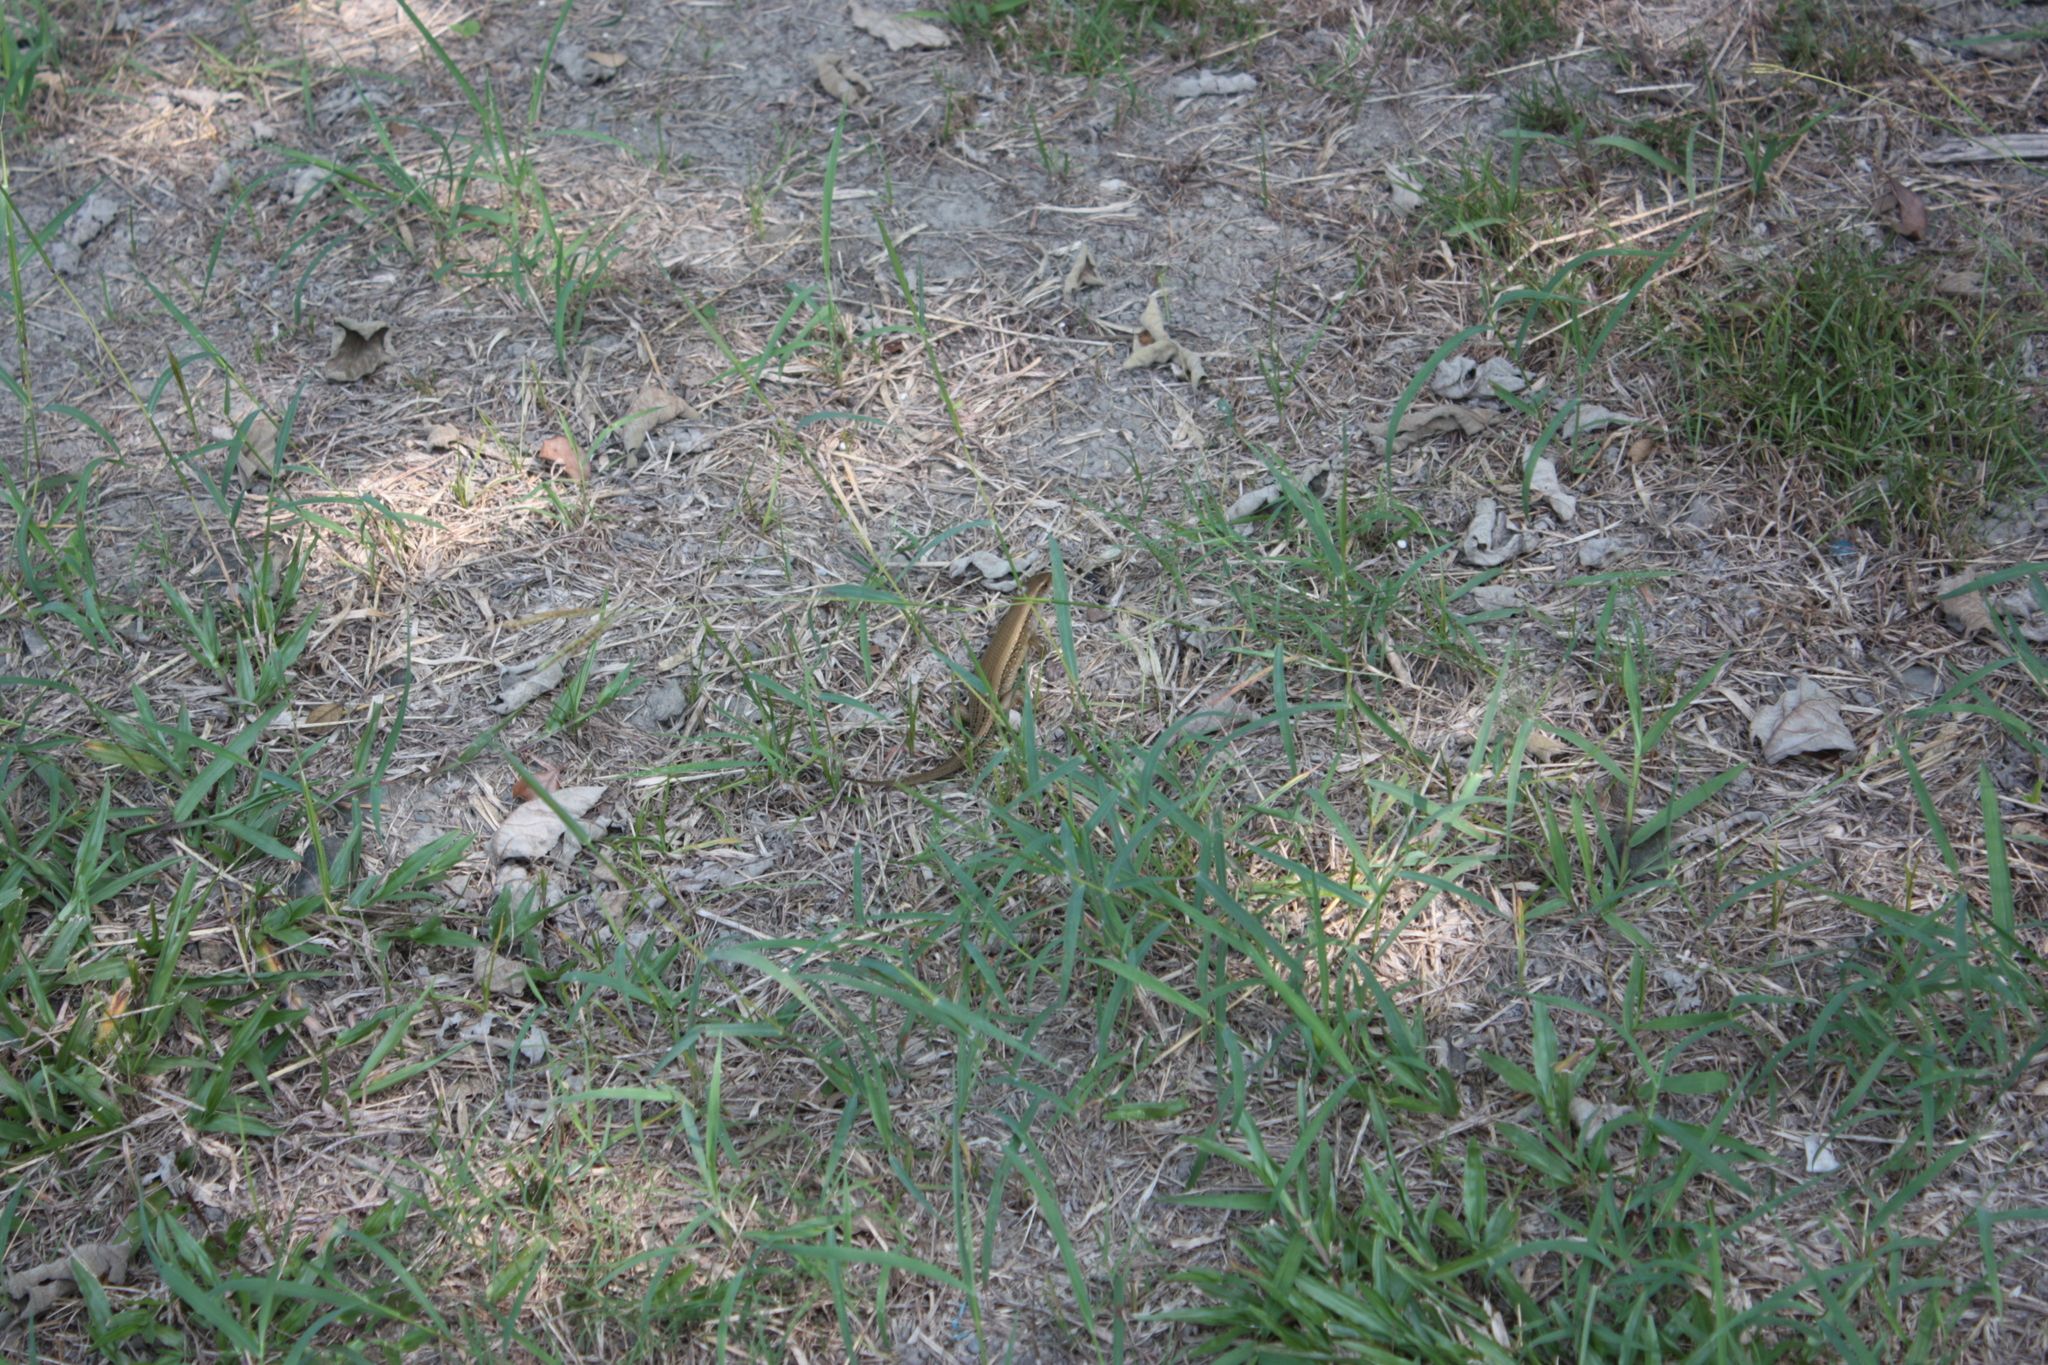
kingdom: Animalia
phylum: Chordata
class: Squamata
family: Scincidae
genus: Eutropis
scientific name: Eutropis multifasciata
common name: Common mabuya
